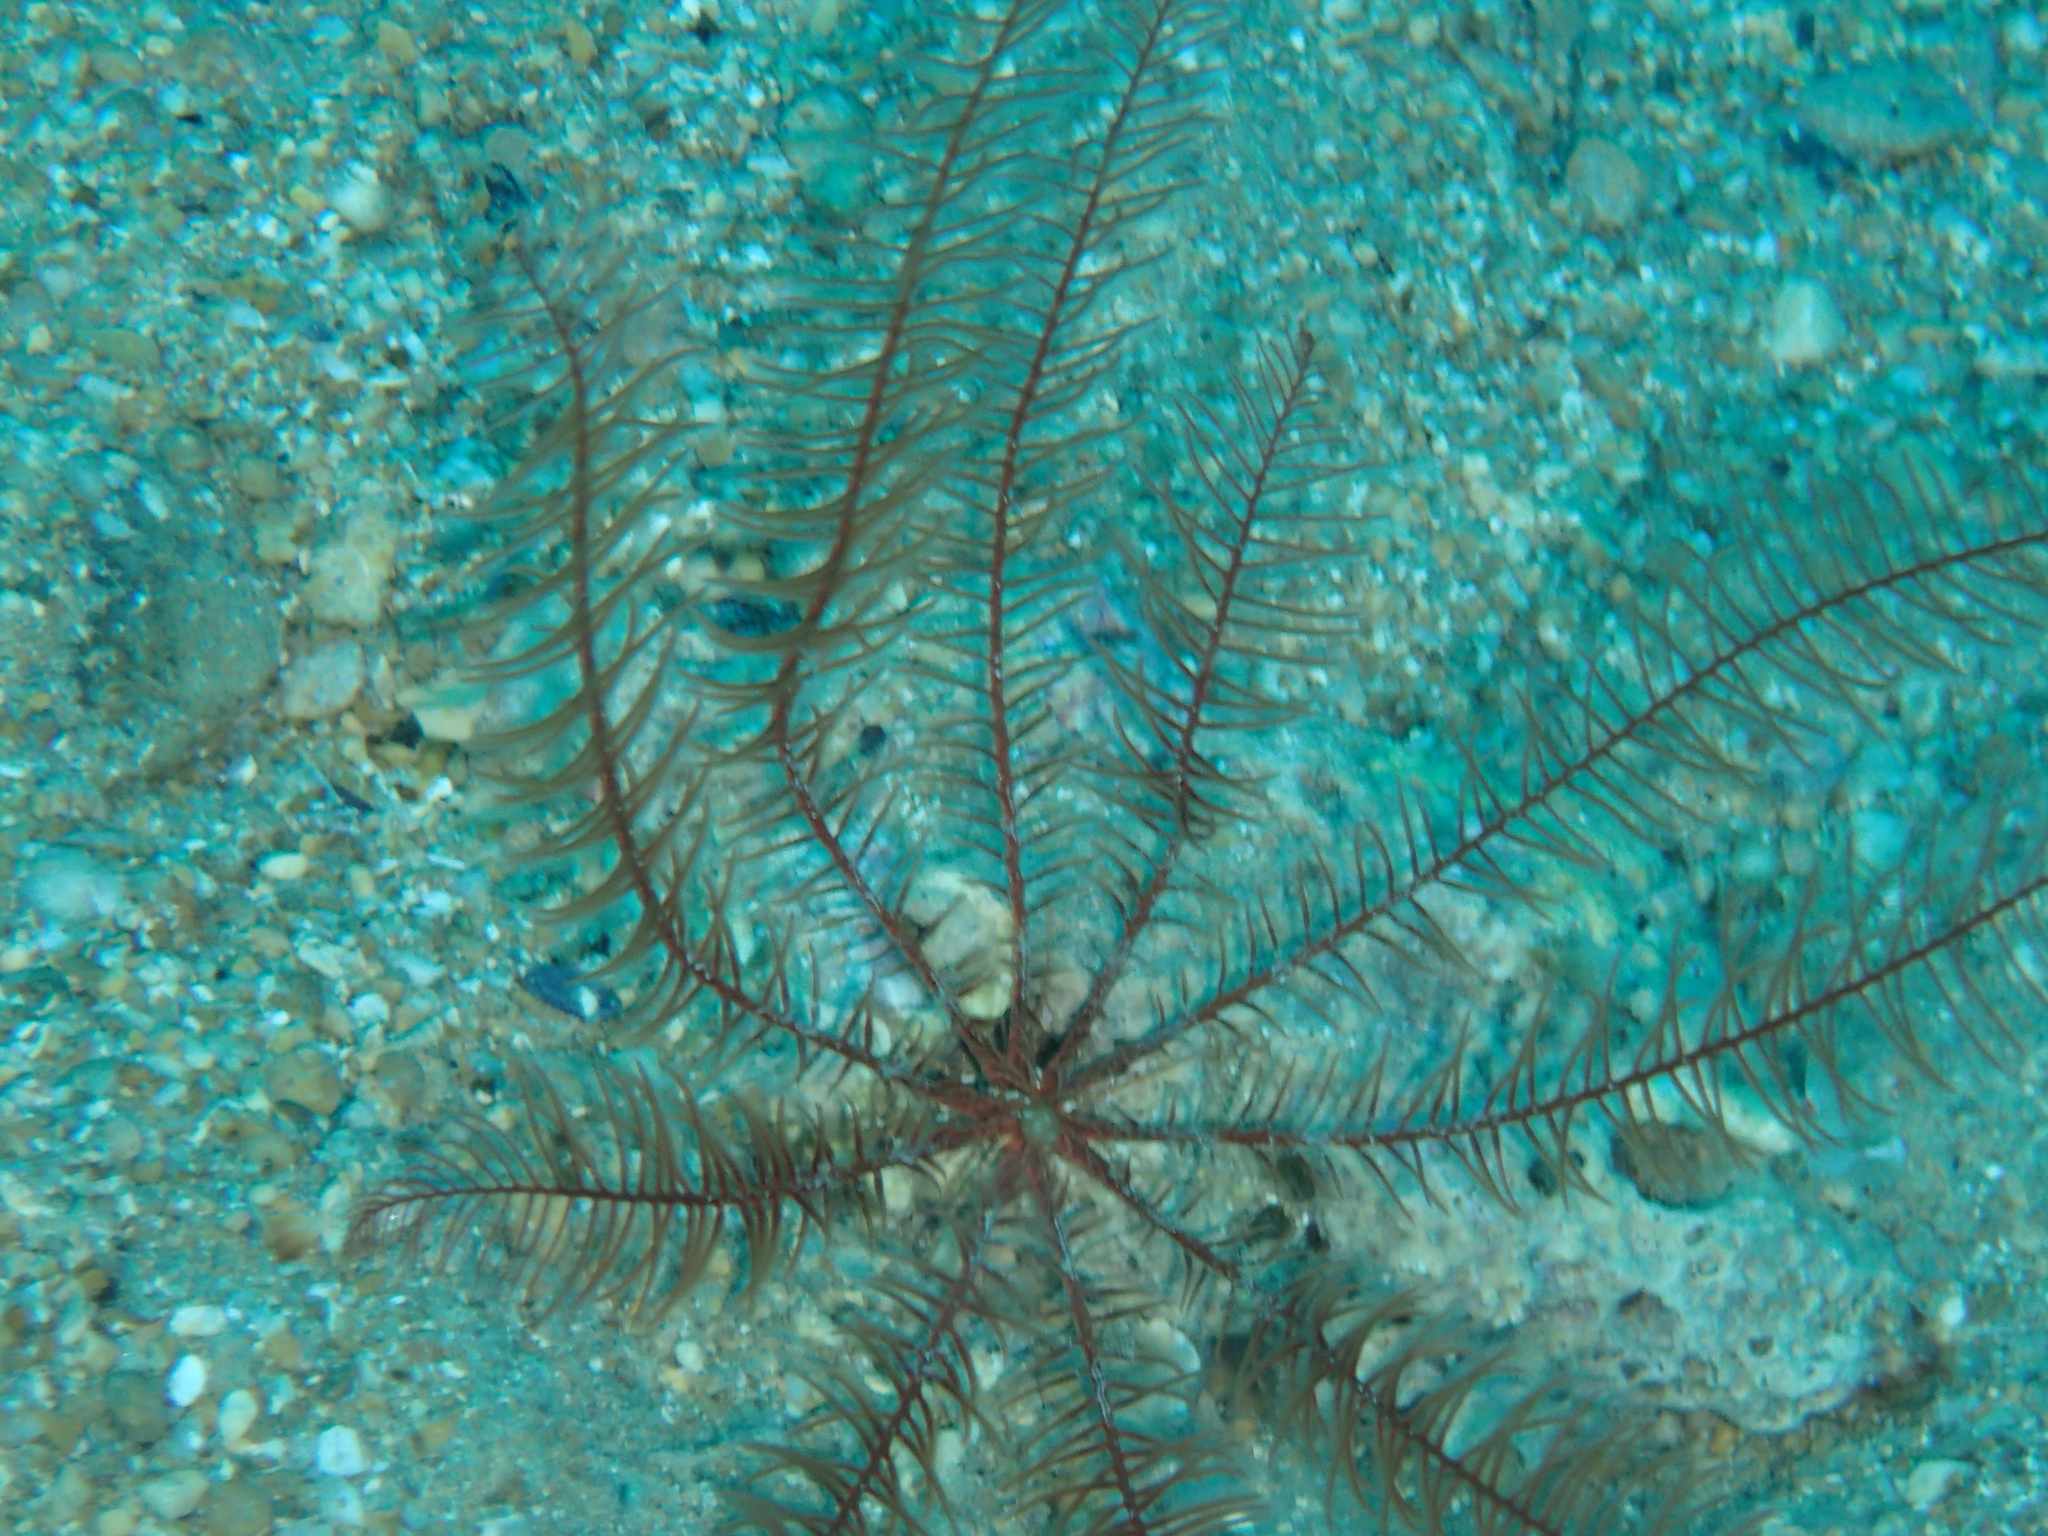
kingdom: Animalia
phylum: Echinodermata
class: Crinoidea
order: Comatulida
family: Antedonidae
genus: Antedon
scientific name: Antedon mediterranea
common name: Feather star
